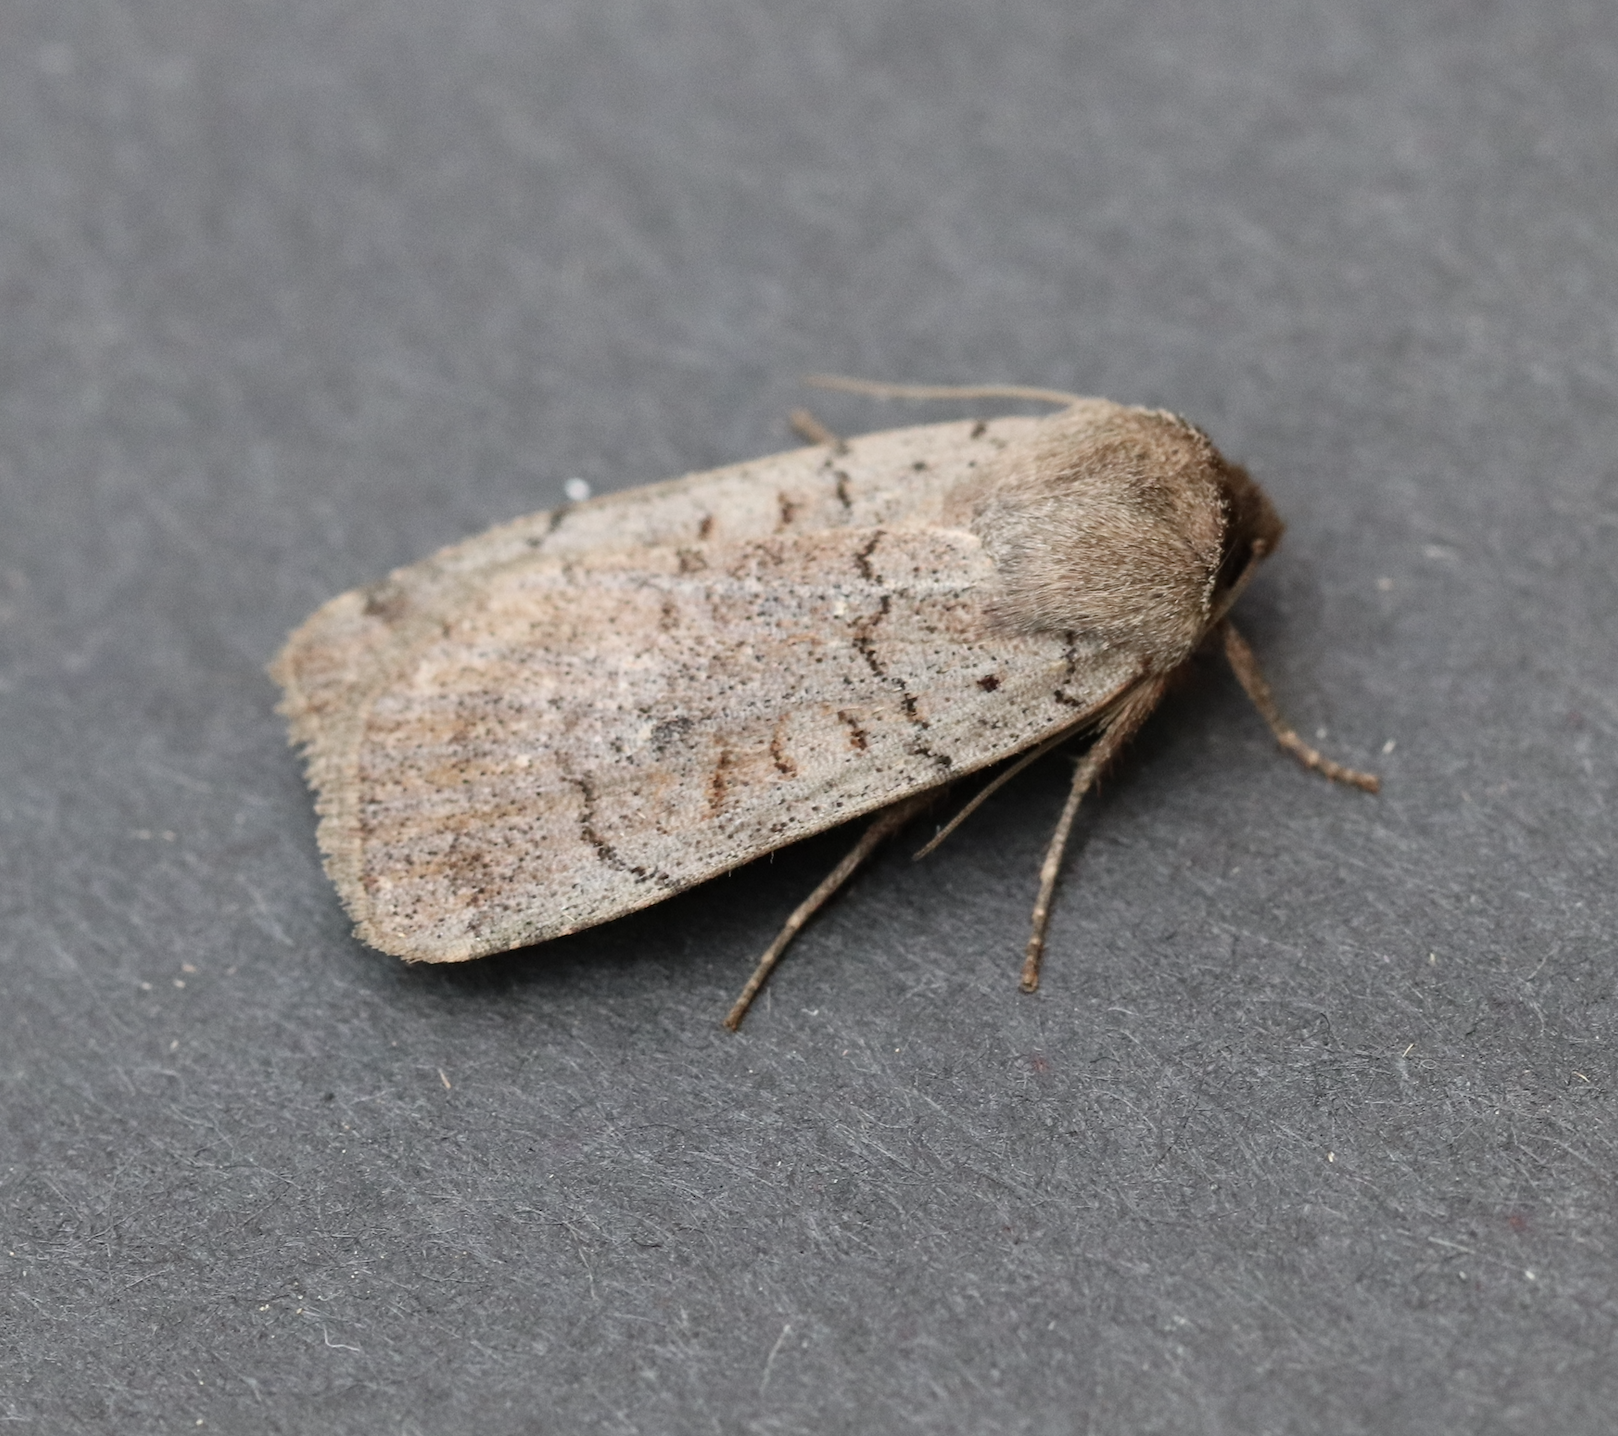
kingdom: Animalia
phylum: Arthropoda
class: Insecta
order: Lepidoptera
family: Noctuidae
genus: Protolampra
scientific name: Protolampra rufipectus
